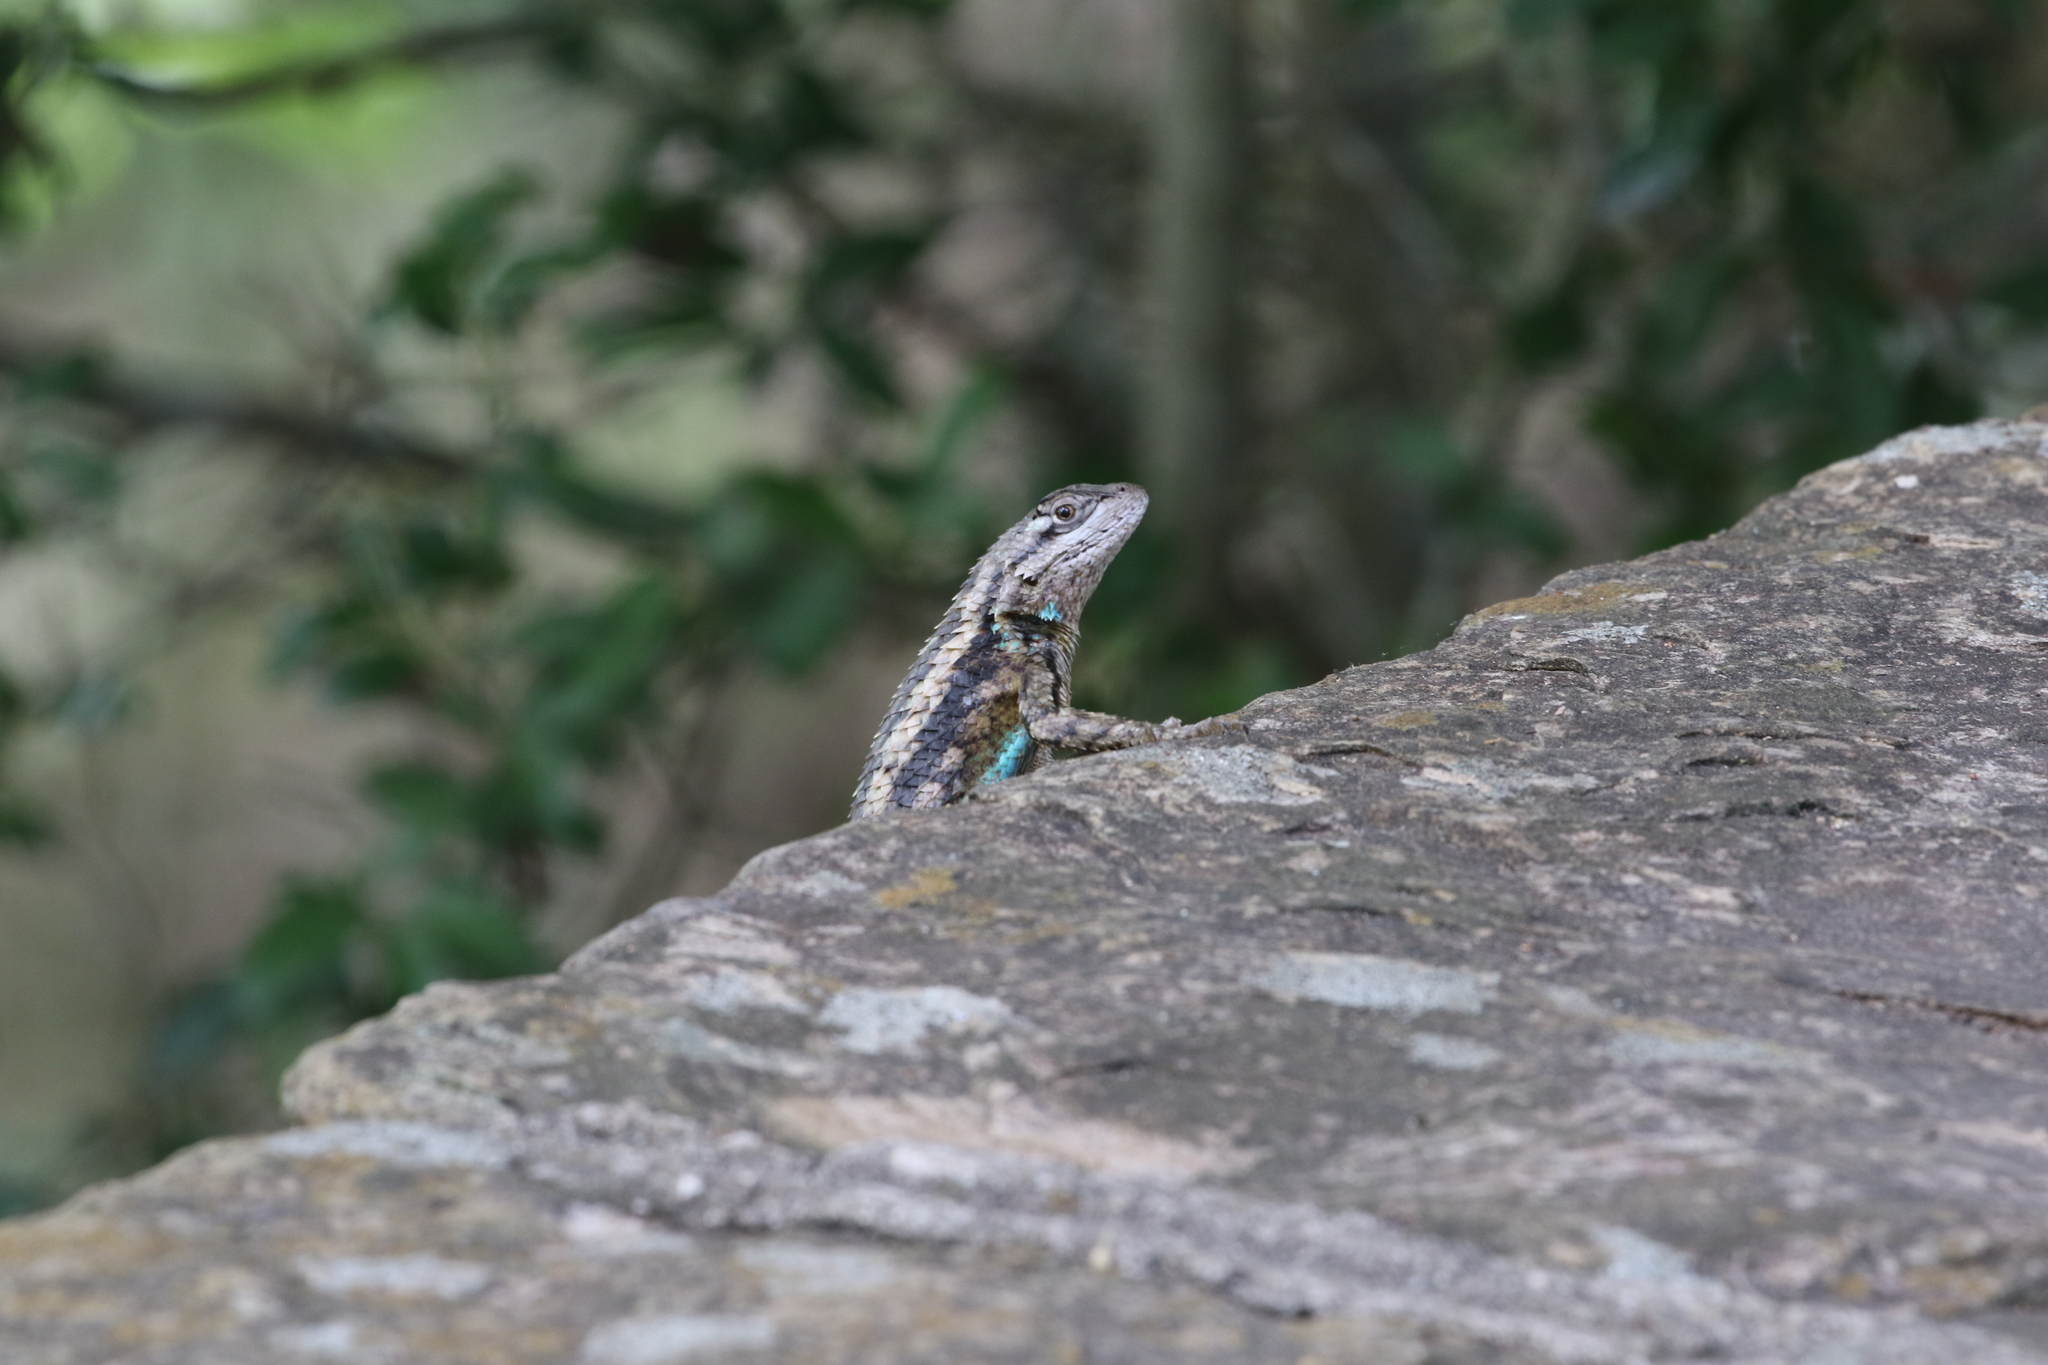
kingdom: Animalia
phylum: Chordata
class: Squamata
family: Phrynosomatidae
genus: Sceloporus
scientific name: Sceloporus olivaceus
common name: Texas spiny lizard
